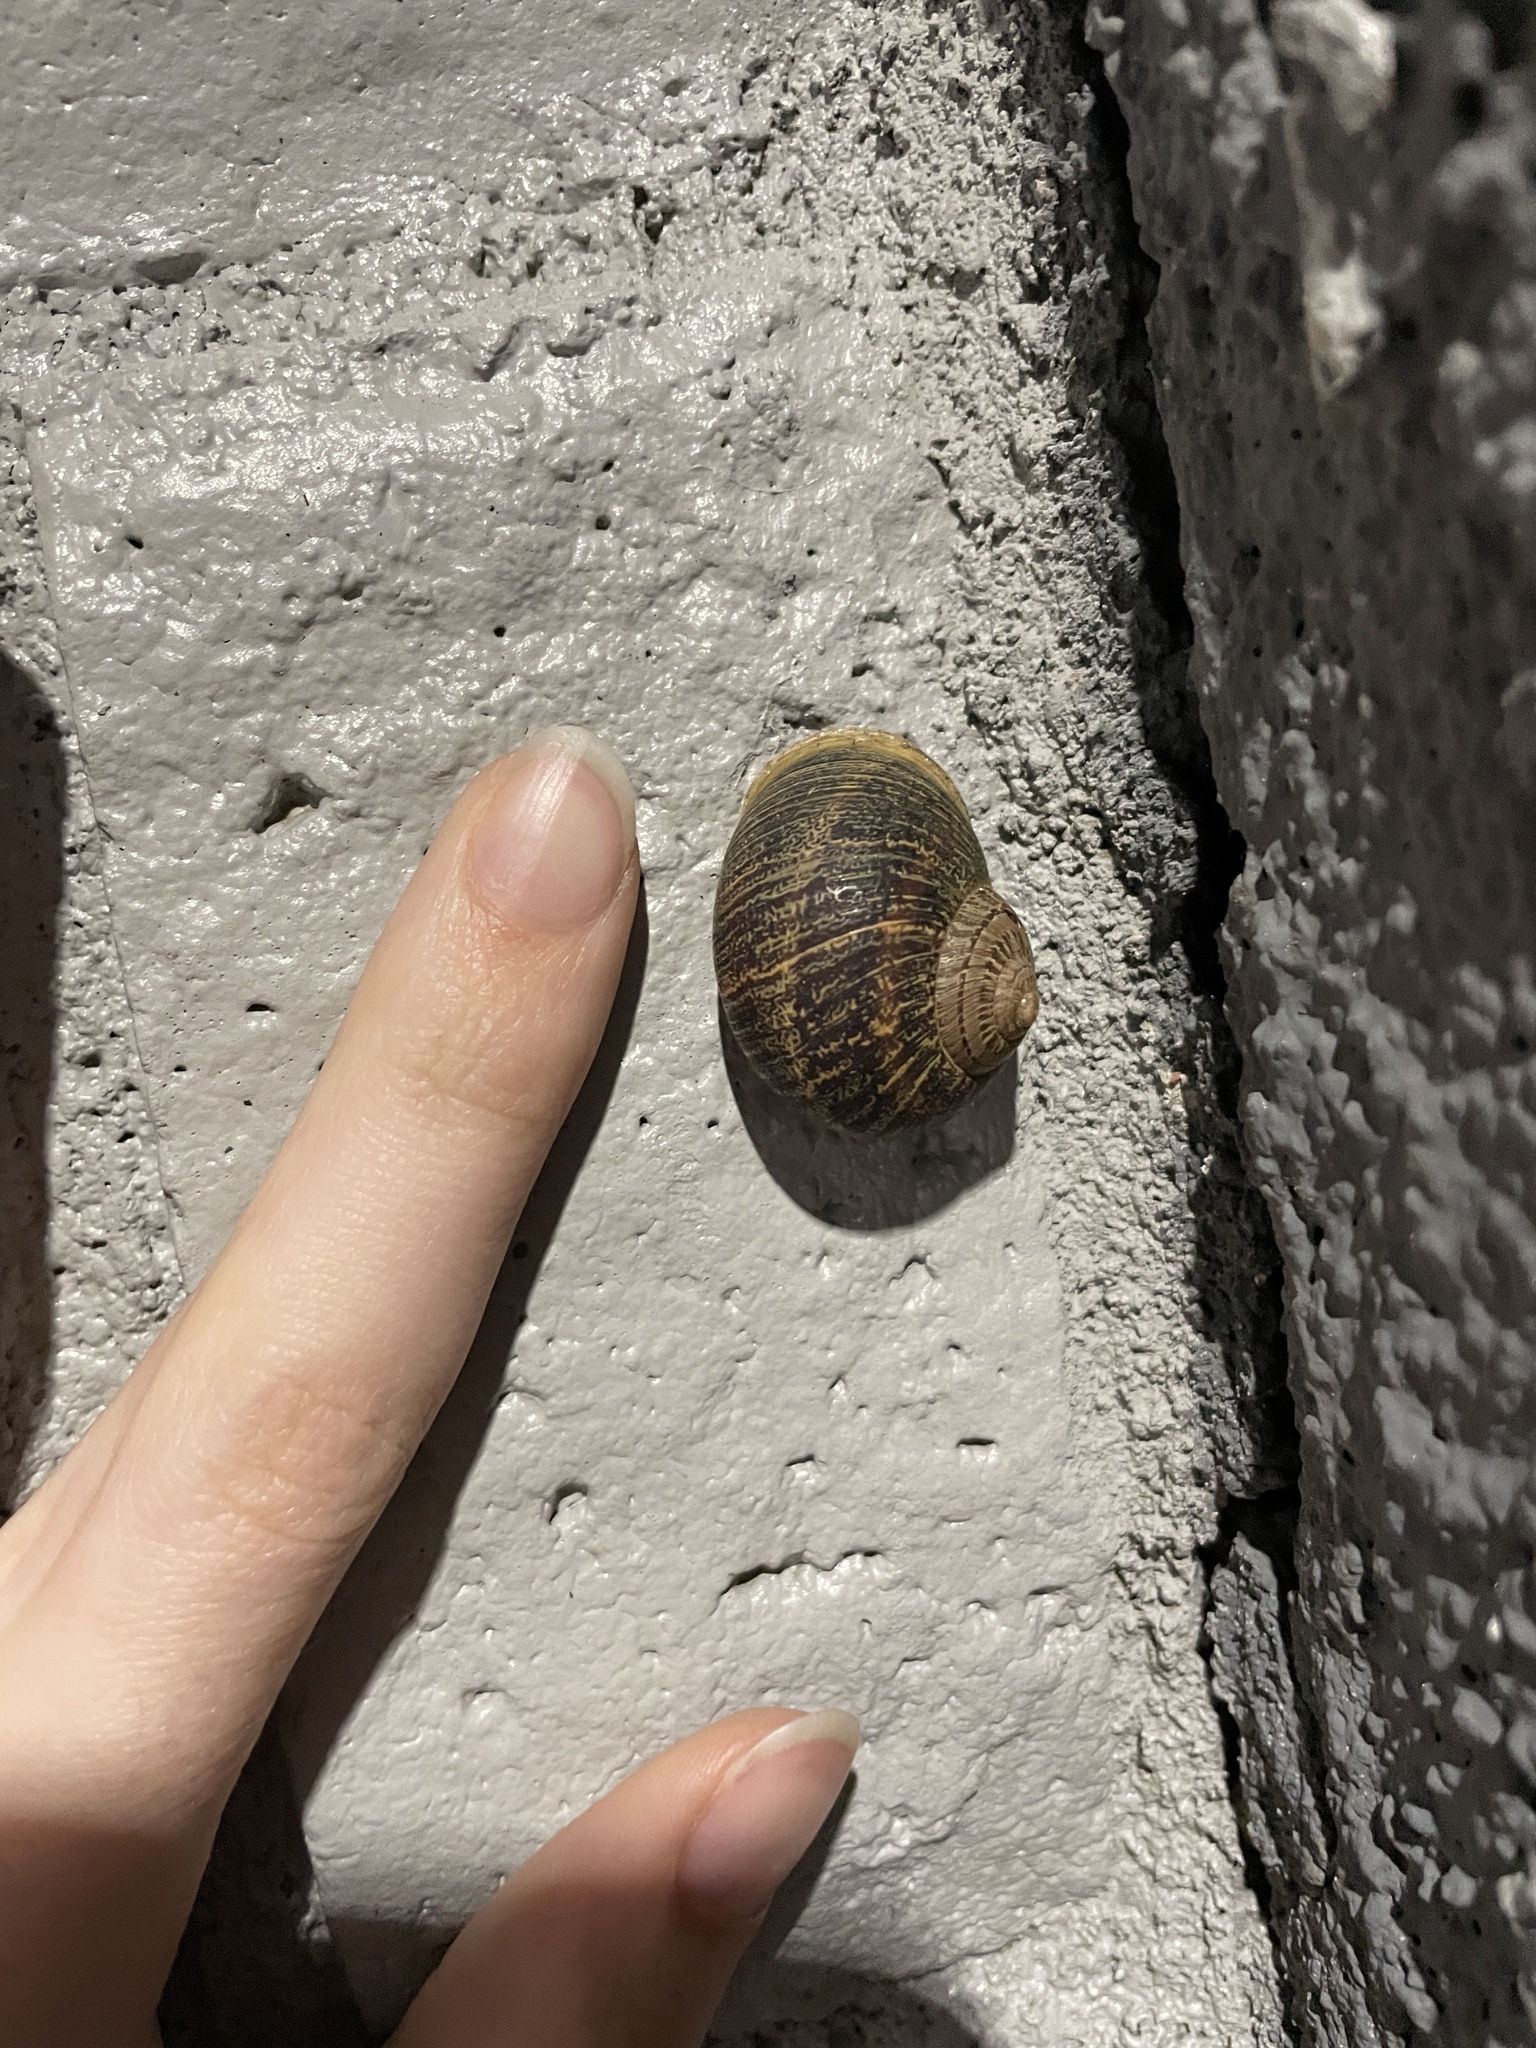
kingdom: Animalia
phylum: Mollusca
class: Gastropoda
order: Stylommatophora
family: Helicidae
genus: Cornu
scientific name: Cornu aspersum
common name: Brown garden snail
